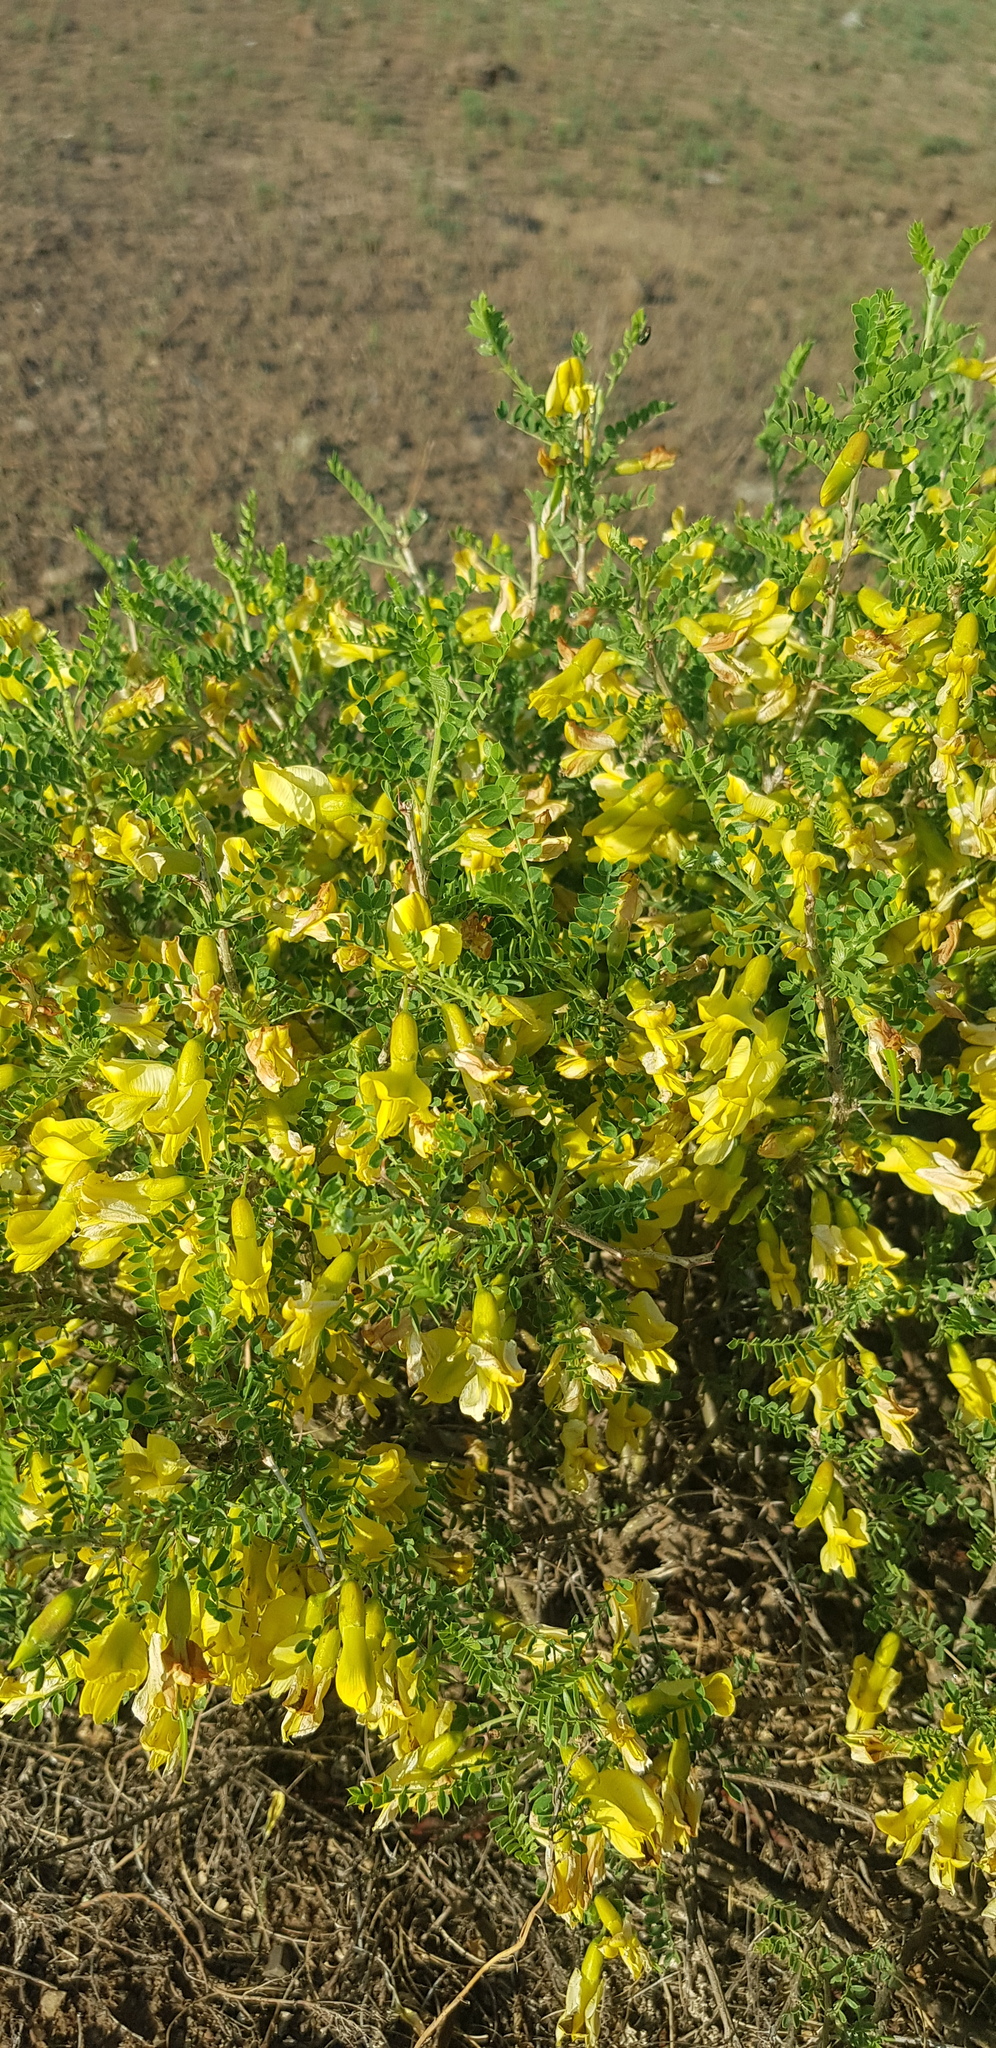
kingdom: Plantae
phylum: Tracheophyta
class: Magnoliopsida
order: Fabales
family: Fabaceae
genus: Caragana
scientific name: Caragana microphylla
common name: Littleleaf peashrub
